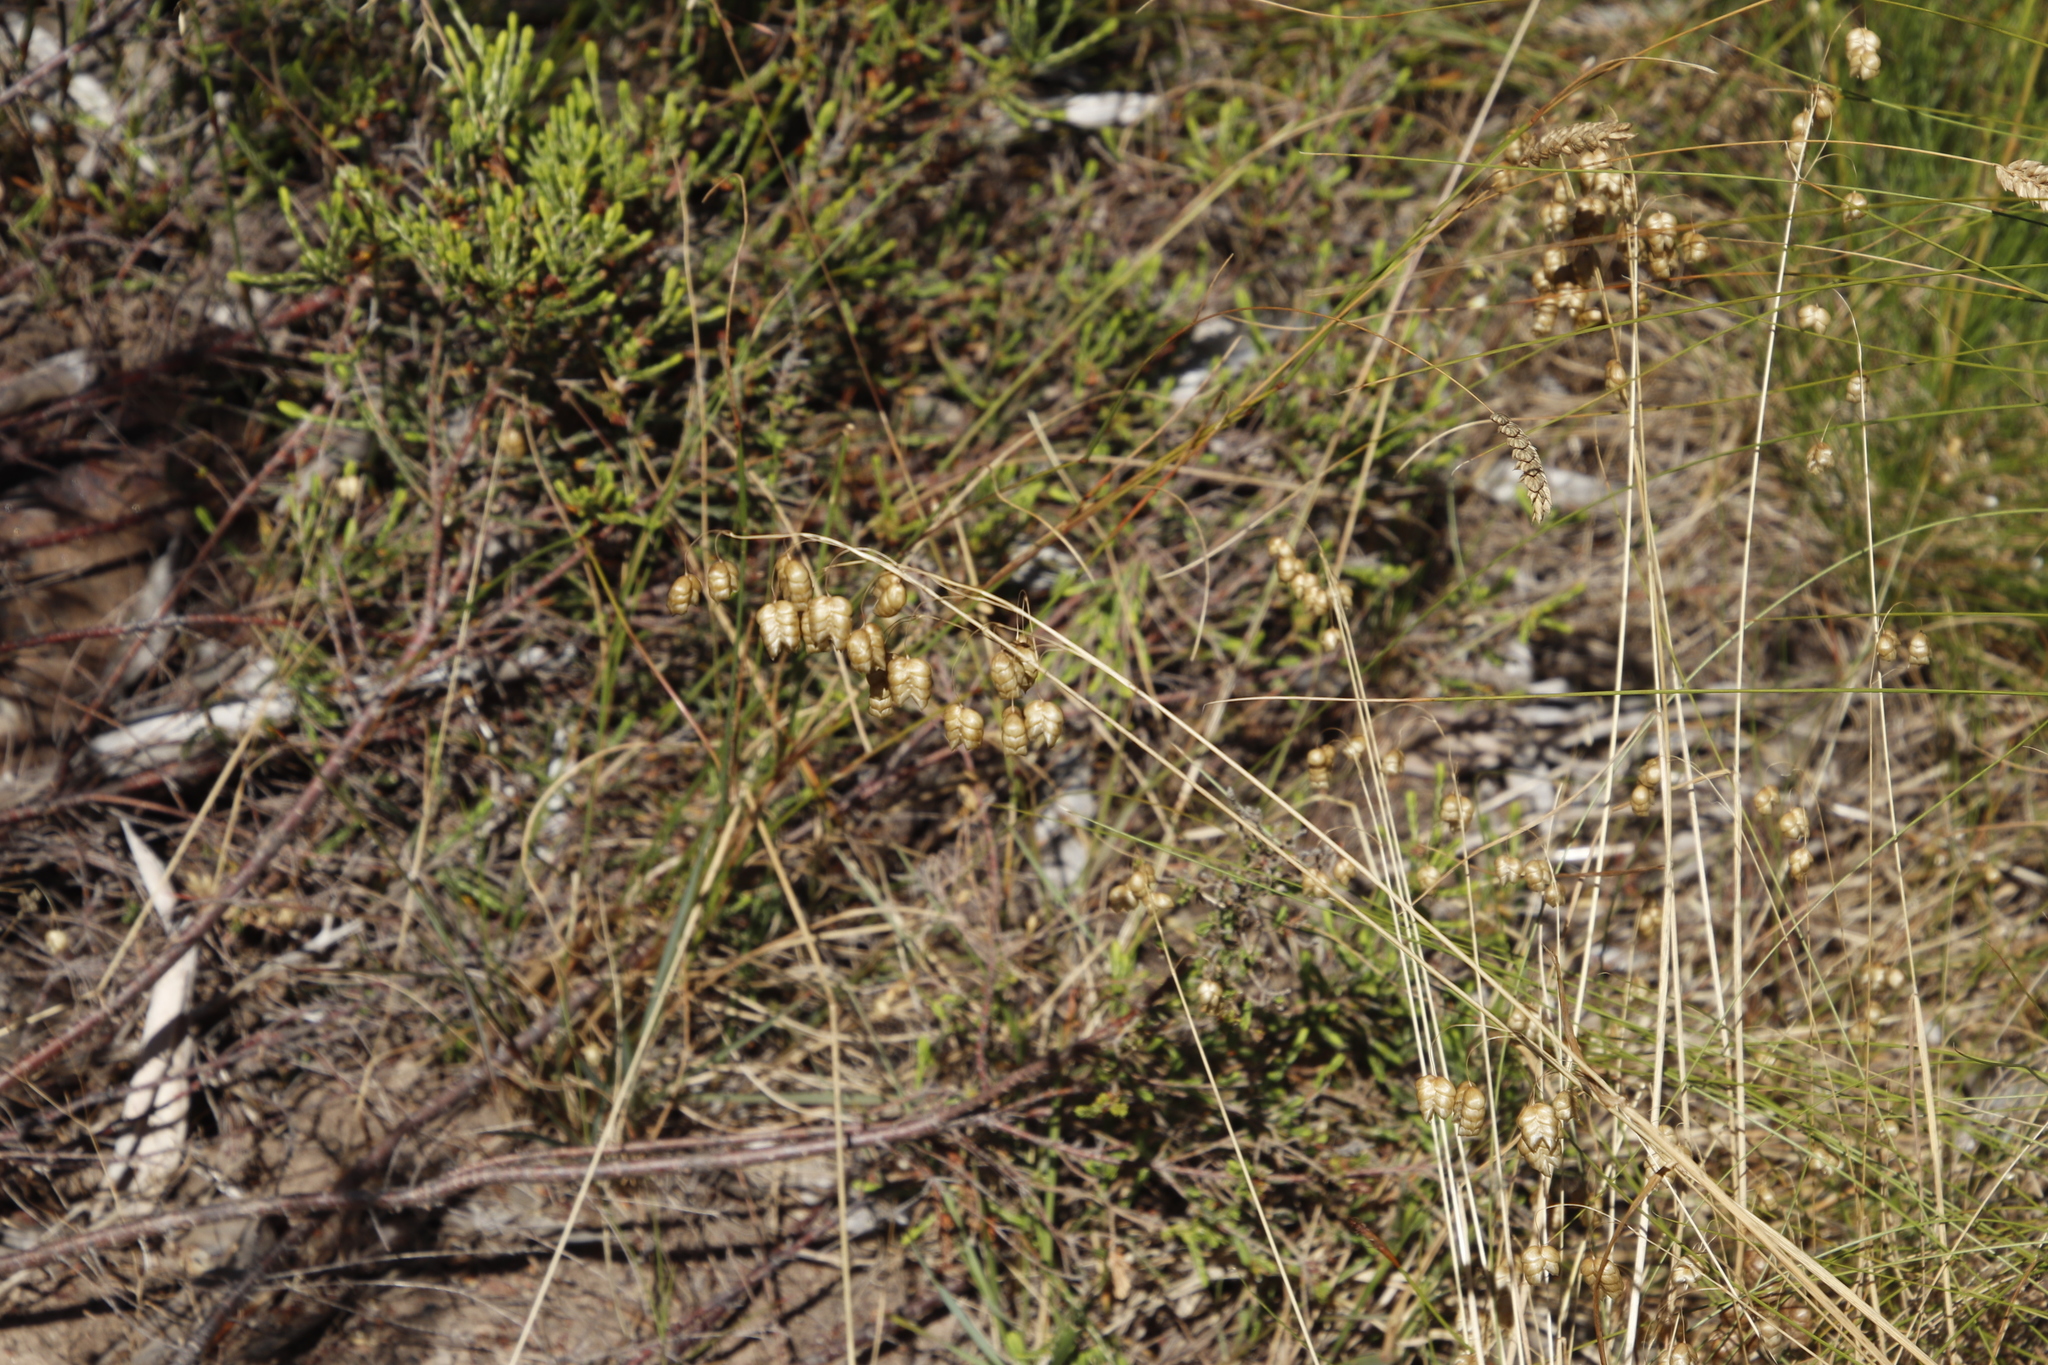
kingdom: Plantae
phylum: Tracheophyta
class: Liliopsida
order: Poales
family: Poaceae
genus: Briza
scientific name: Briza maxima
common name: Big quakinggrass
